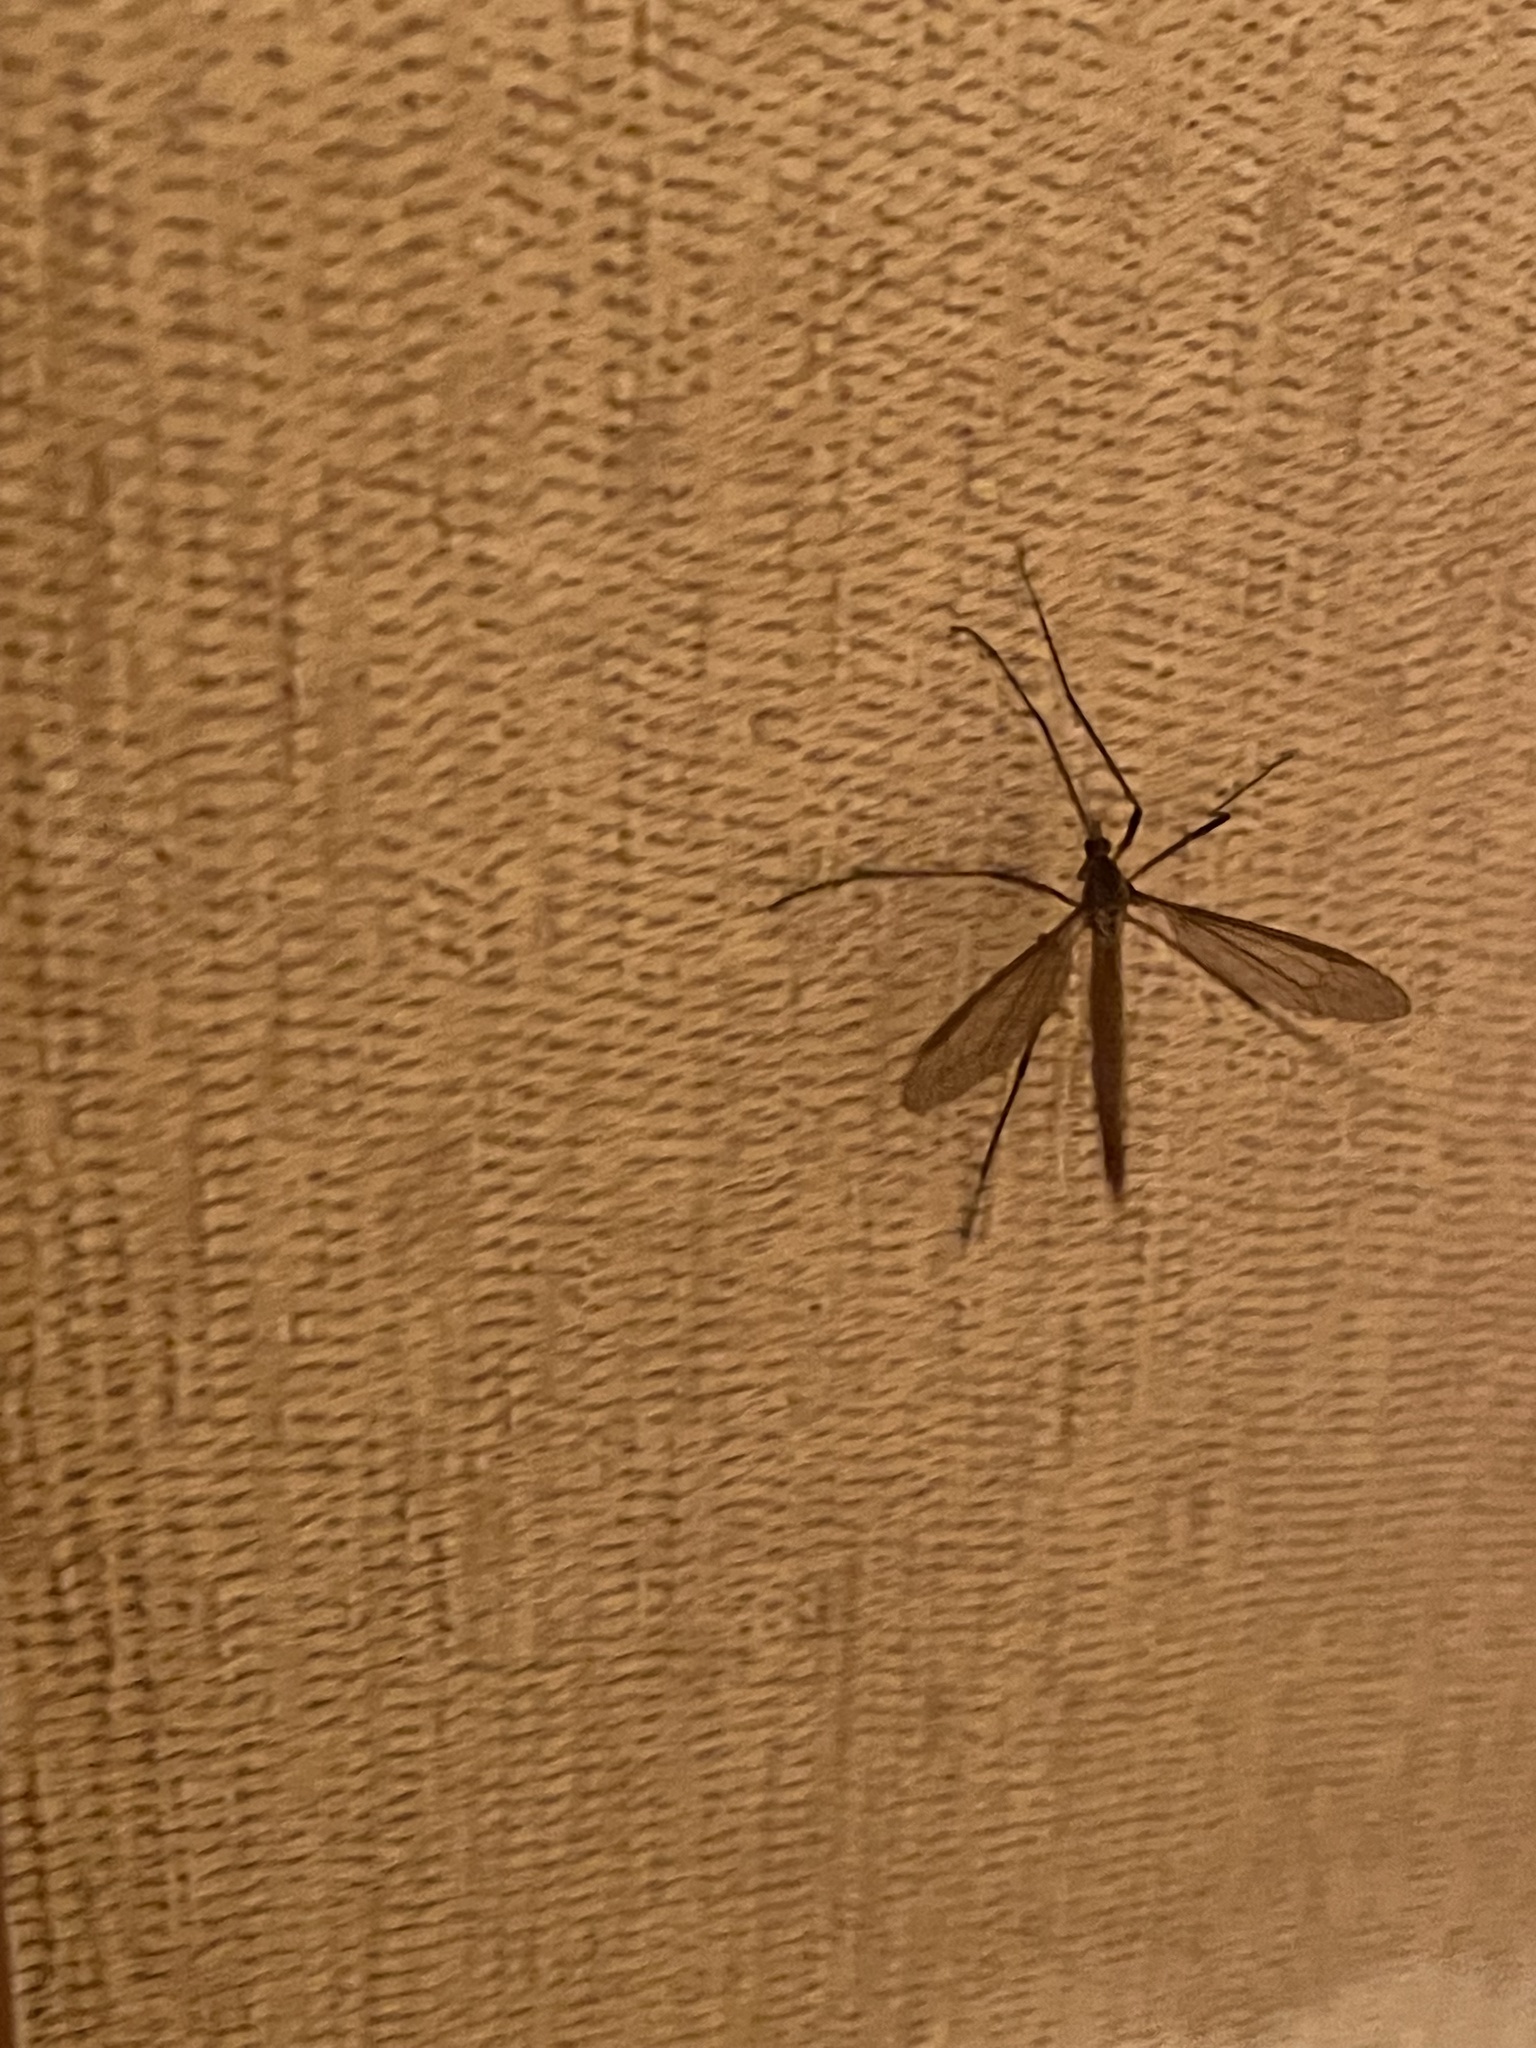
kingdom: Animalia
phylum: Arthropoda
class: Insecta
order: Diptera
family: Tipulidae
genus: Tipula
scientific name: Tipula paludosa
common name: European cranefly
